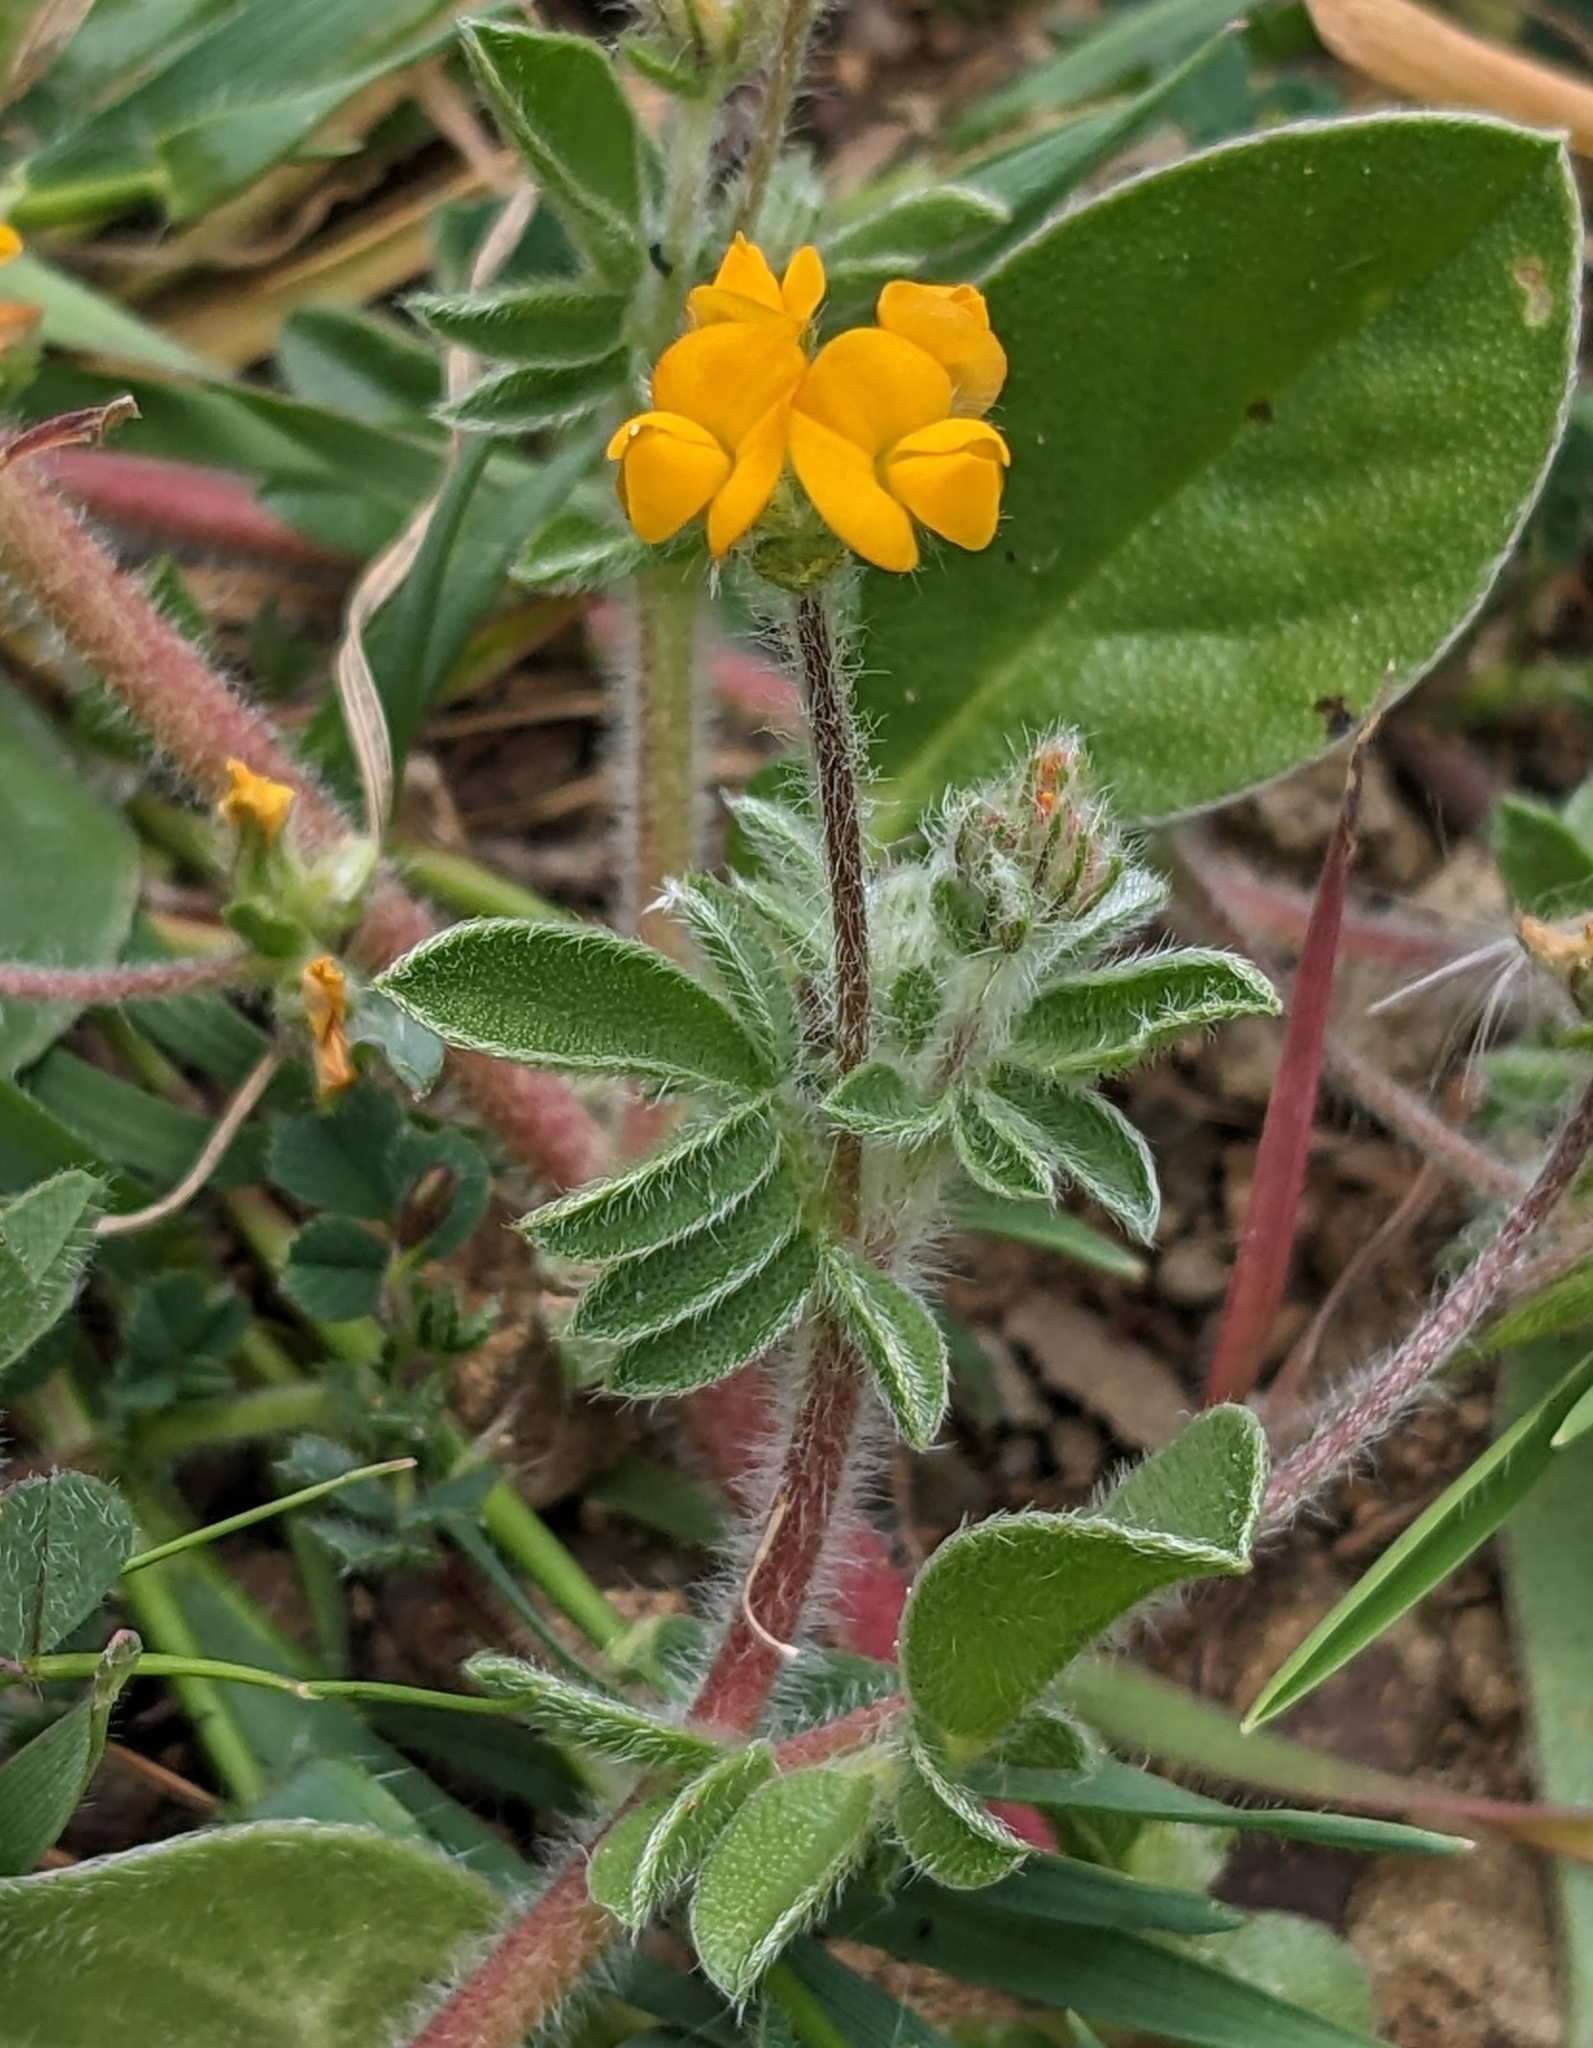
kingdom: Plantae
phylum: Tracheophyta
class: Magnoliopsida
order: Fabales
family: Fabaceae
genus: Anthyllis
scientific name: Anthyllis circinnata
